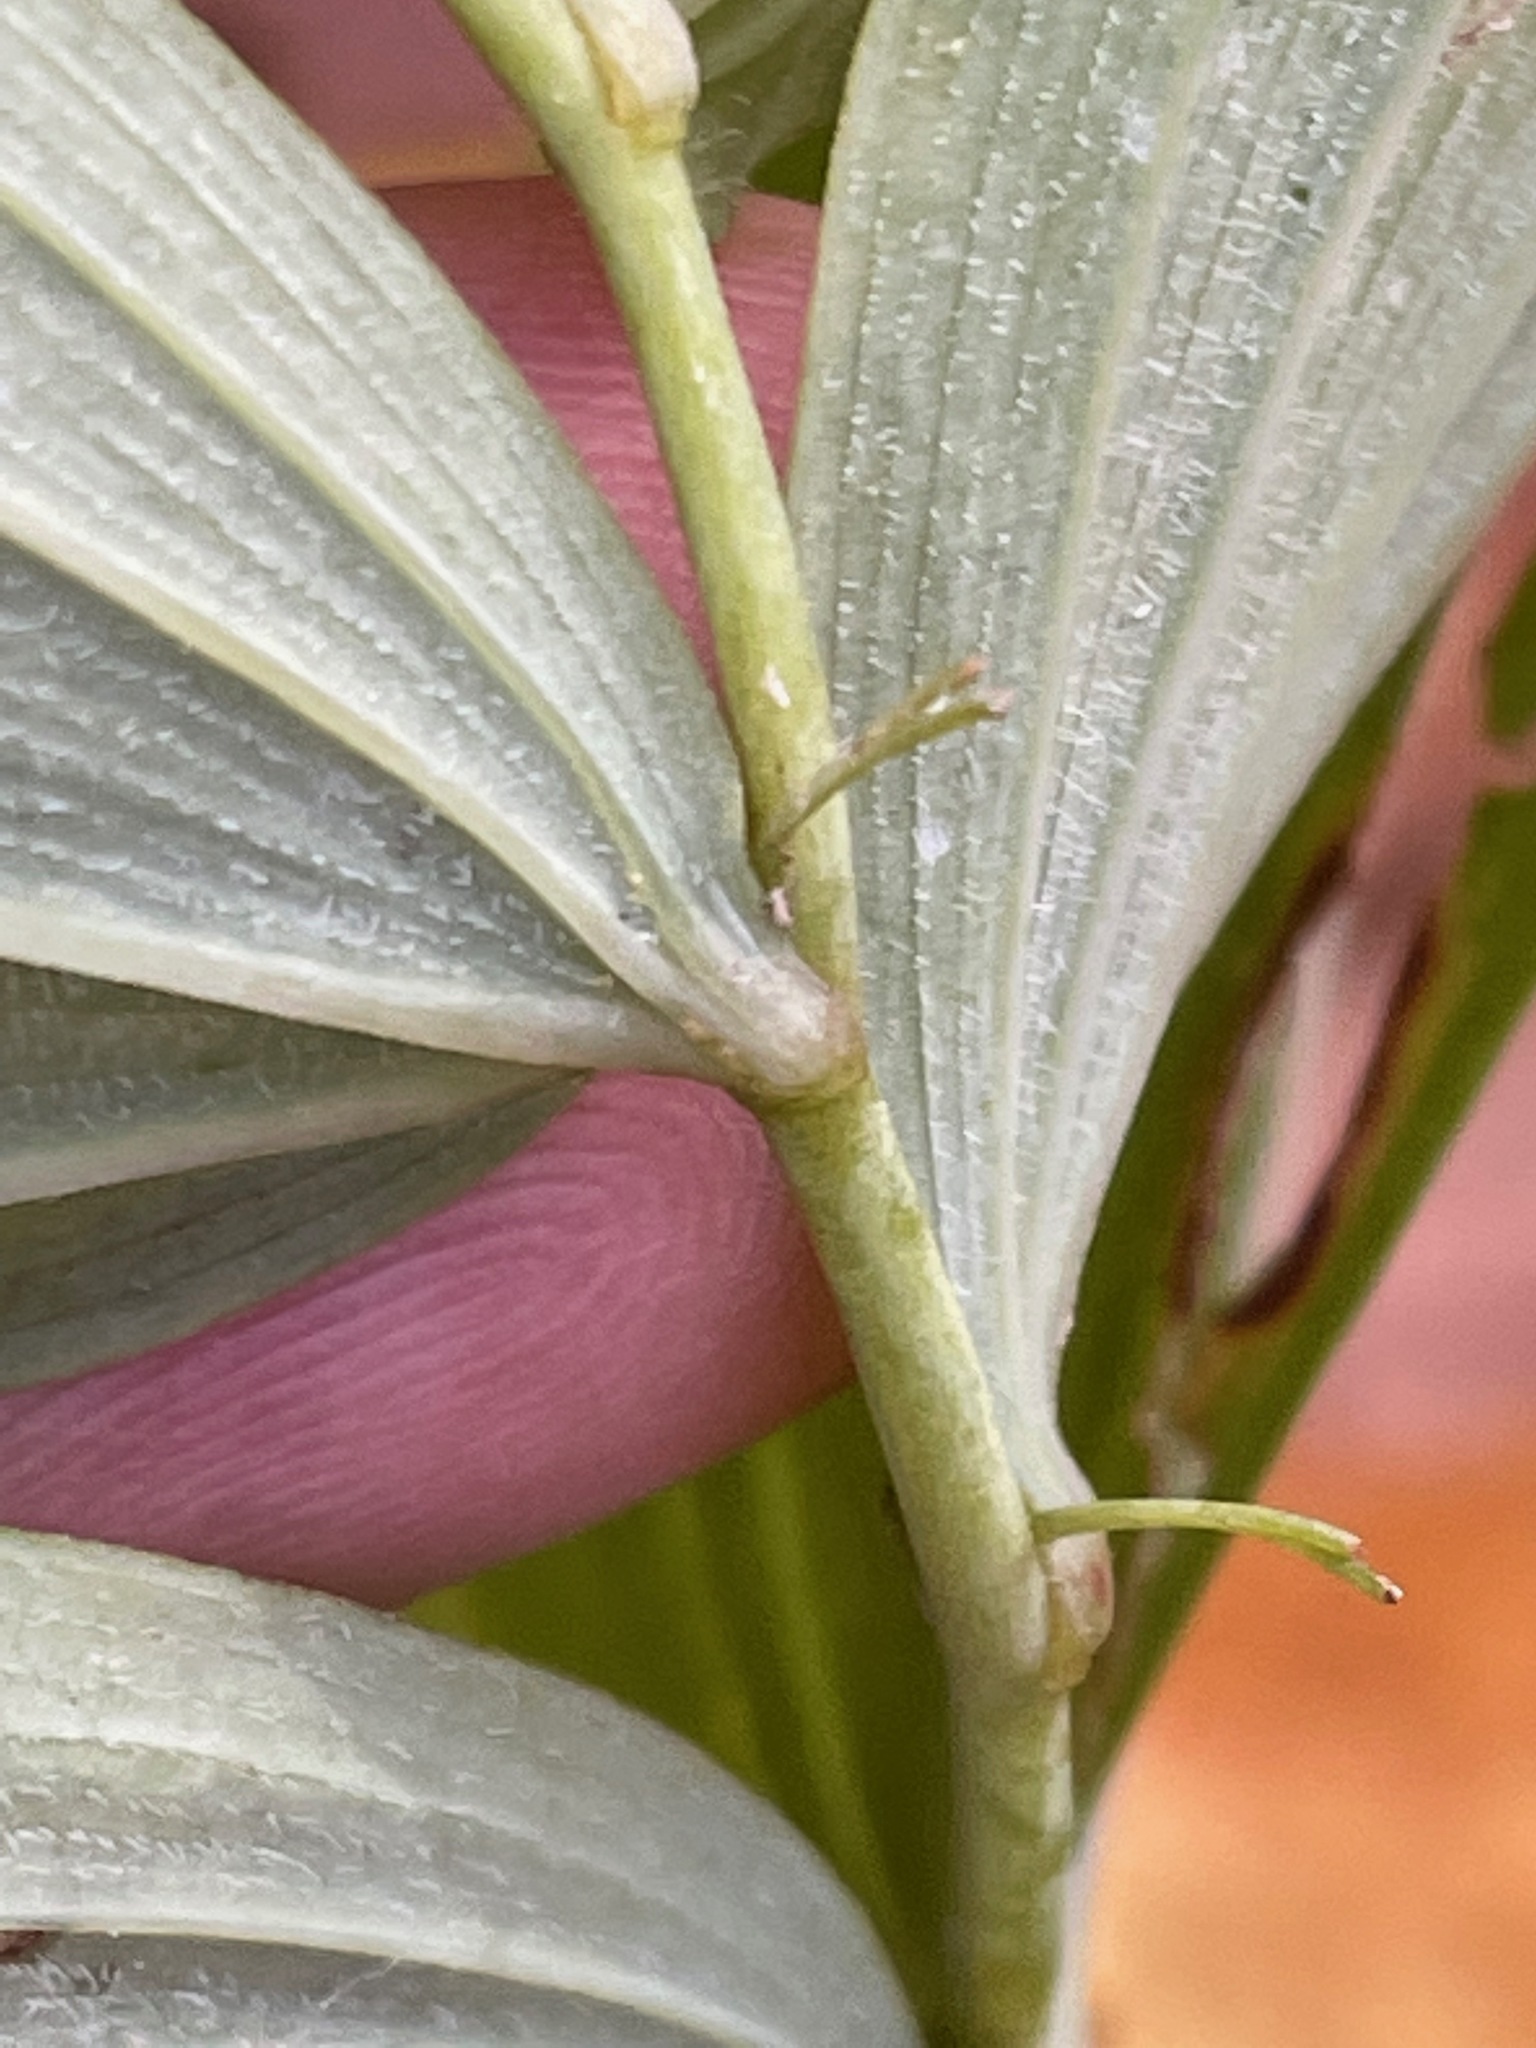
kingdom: Plantae
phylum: Tracheophyta
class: Liliopsida
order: Asparagales
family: Asparagaceae
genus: Polygonatum
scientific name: Polygonatum pubescens
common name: Downy solomon's seal
